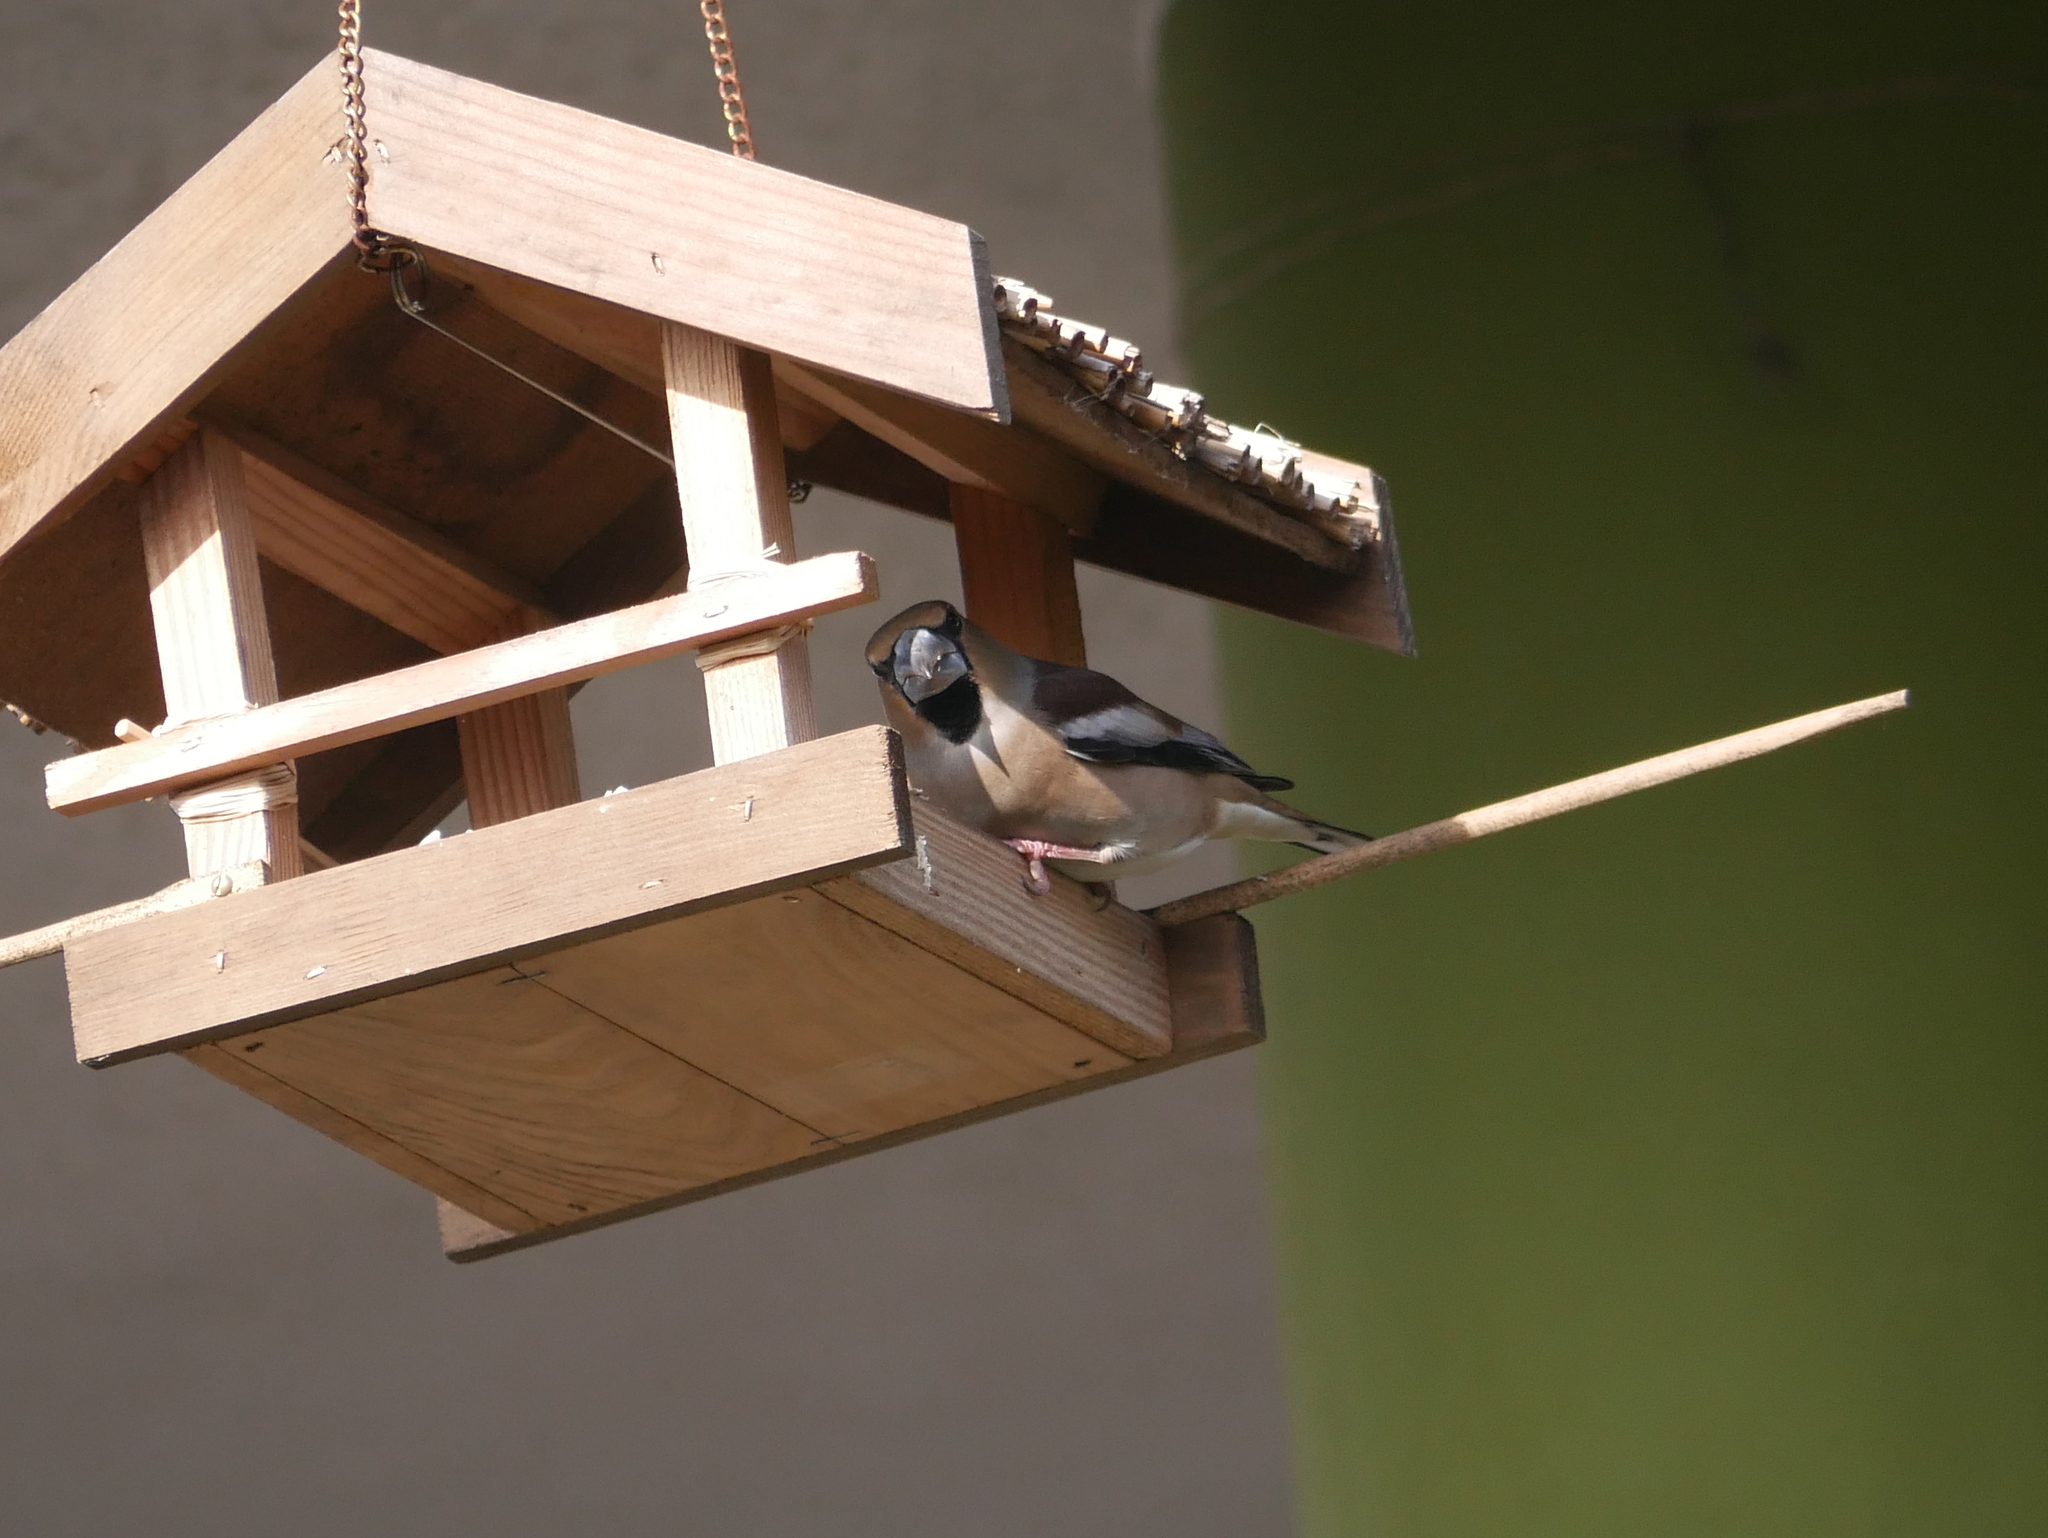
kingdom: Animalia
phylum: Chordata
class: Aves
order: Passeriformes
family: Fringillidae
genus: Coccothraustes
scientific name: Coccothraustes coccothraustes
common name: Hawfinch
